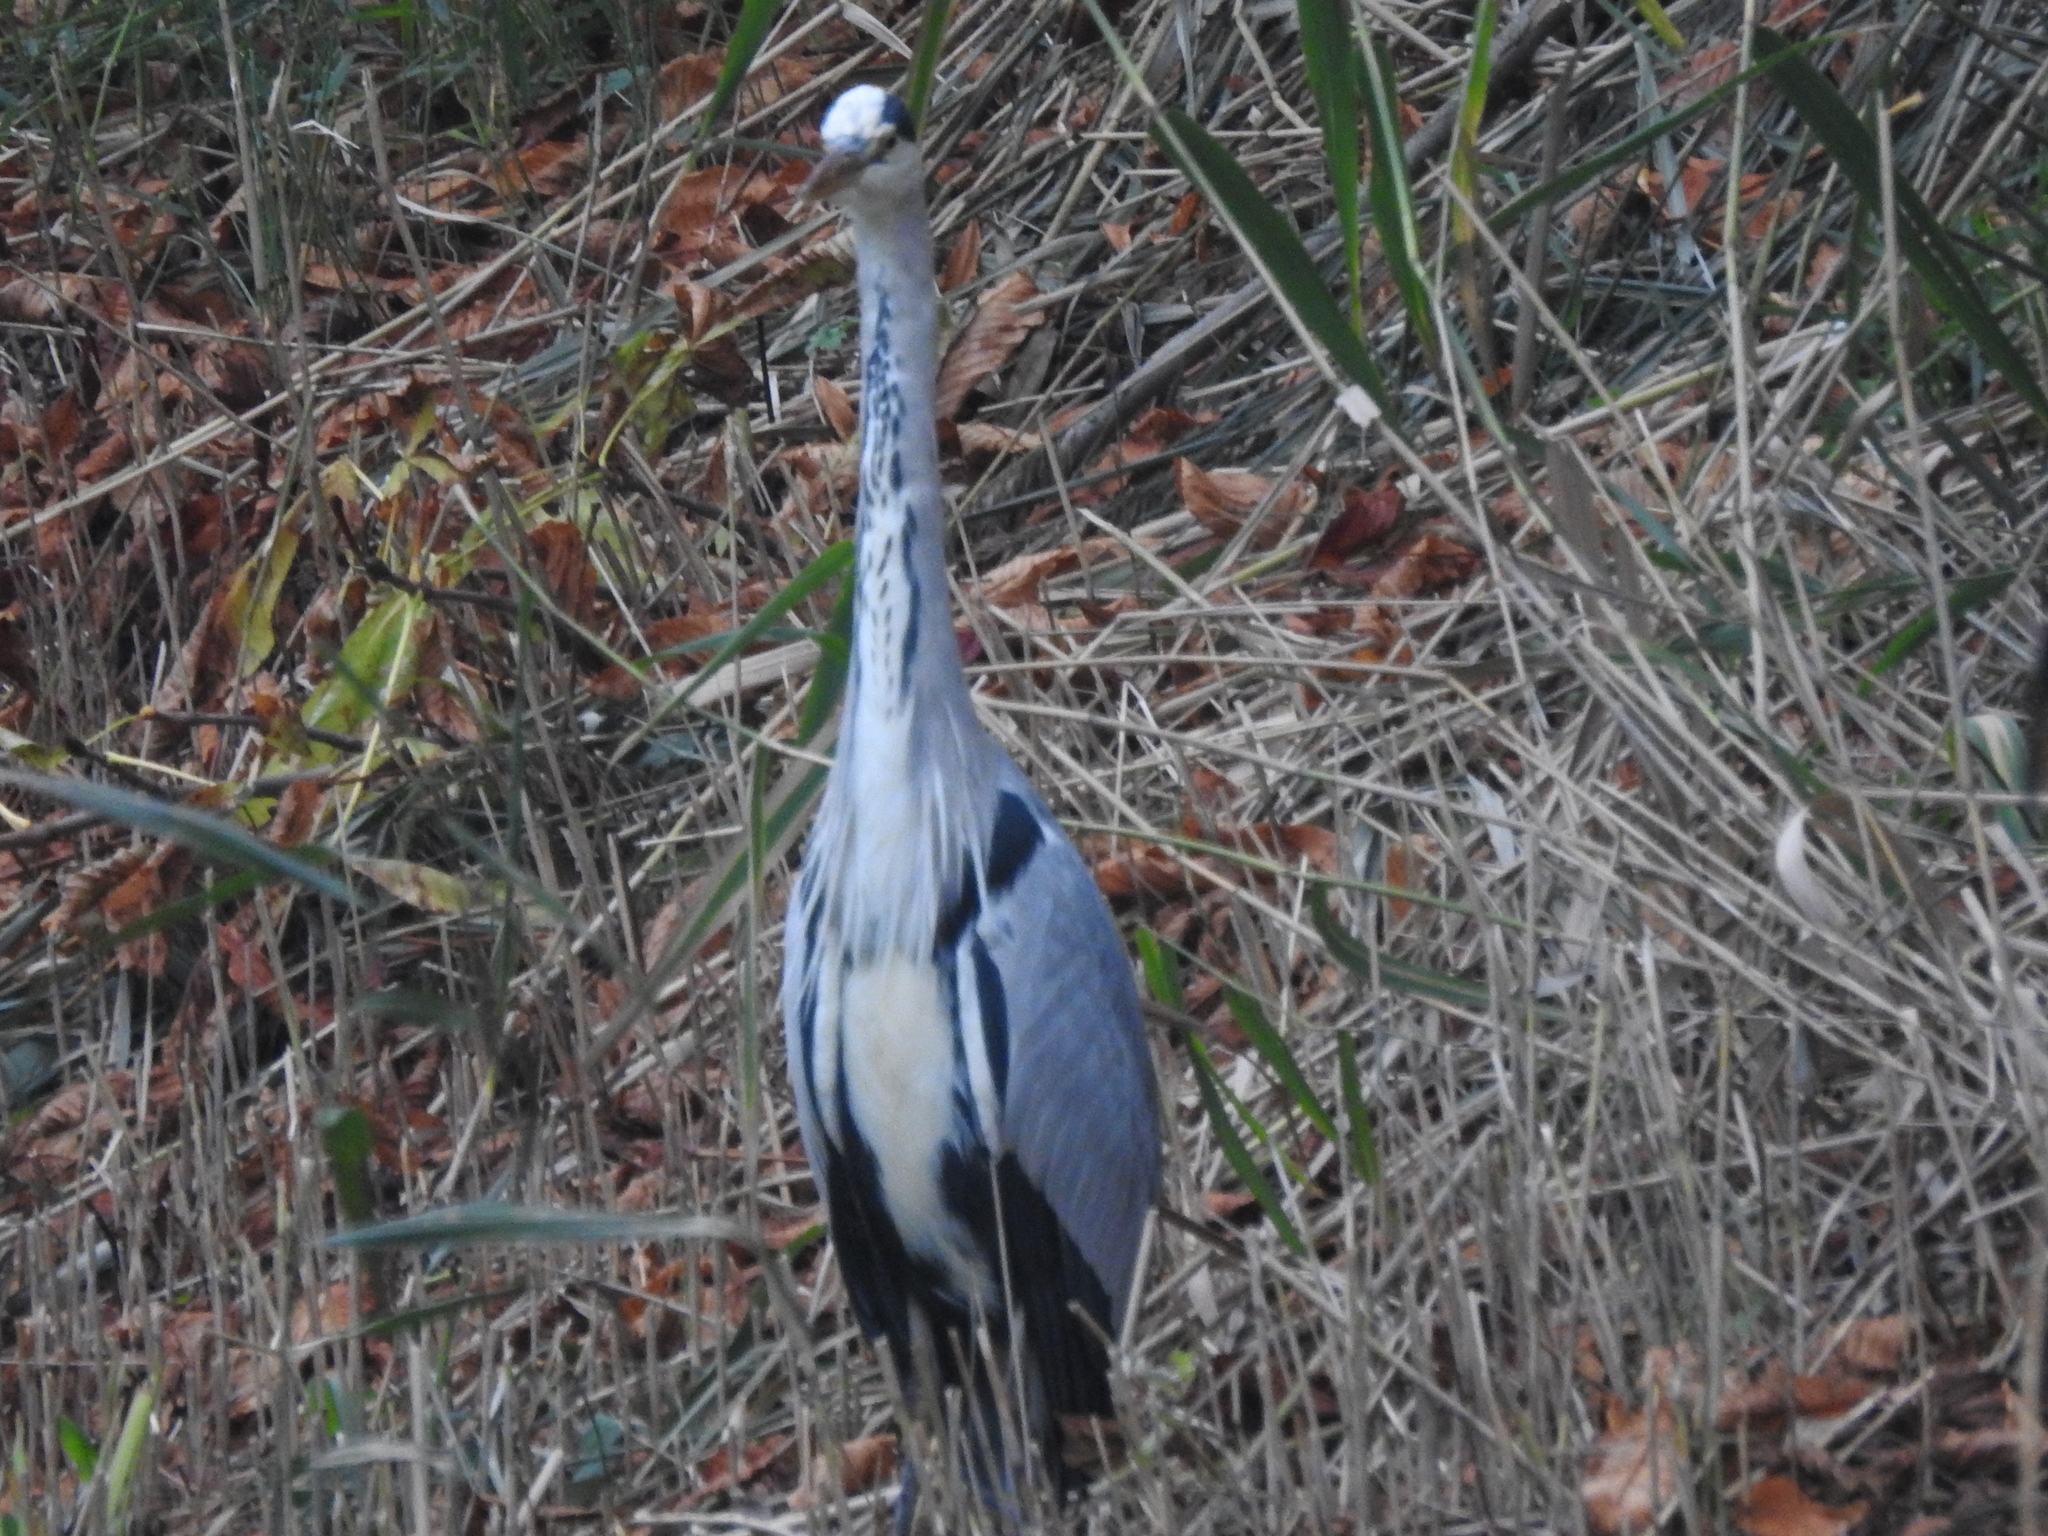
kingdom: Animalia
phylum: Chordata
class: Aves
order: Pelecaniformes
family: Ardeidae
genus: Ardea
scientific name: Ardea cinerea
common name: Grey heron
